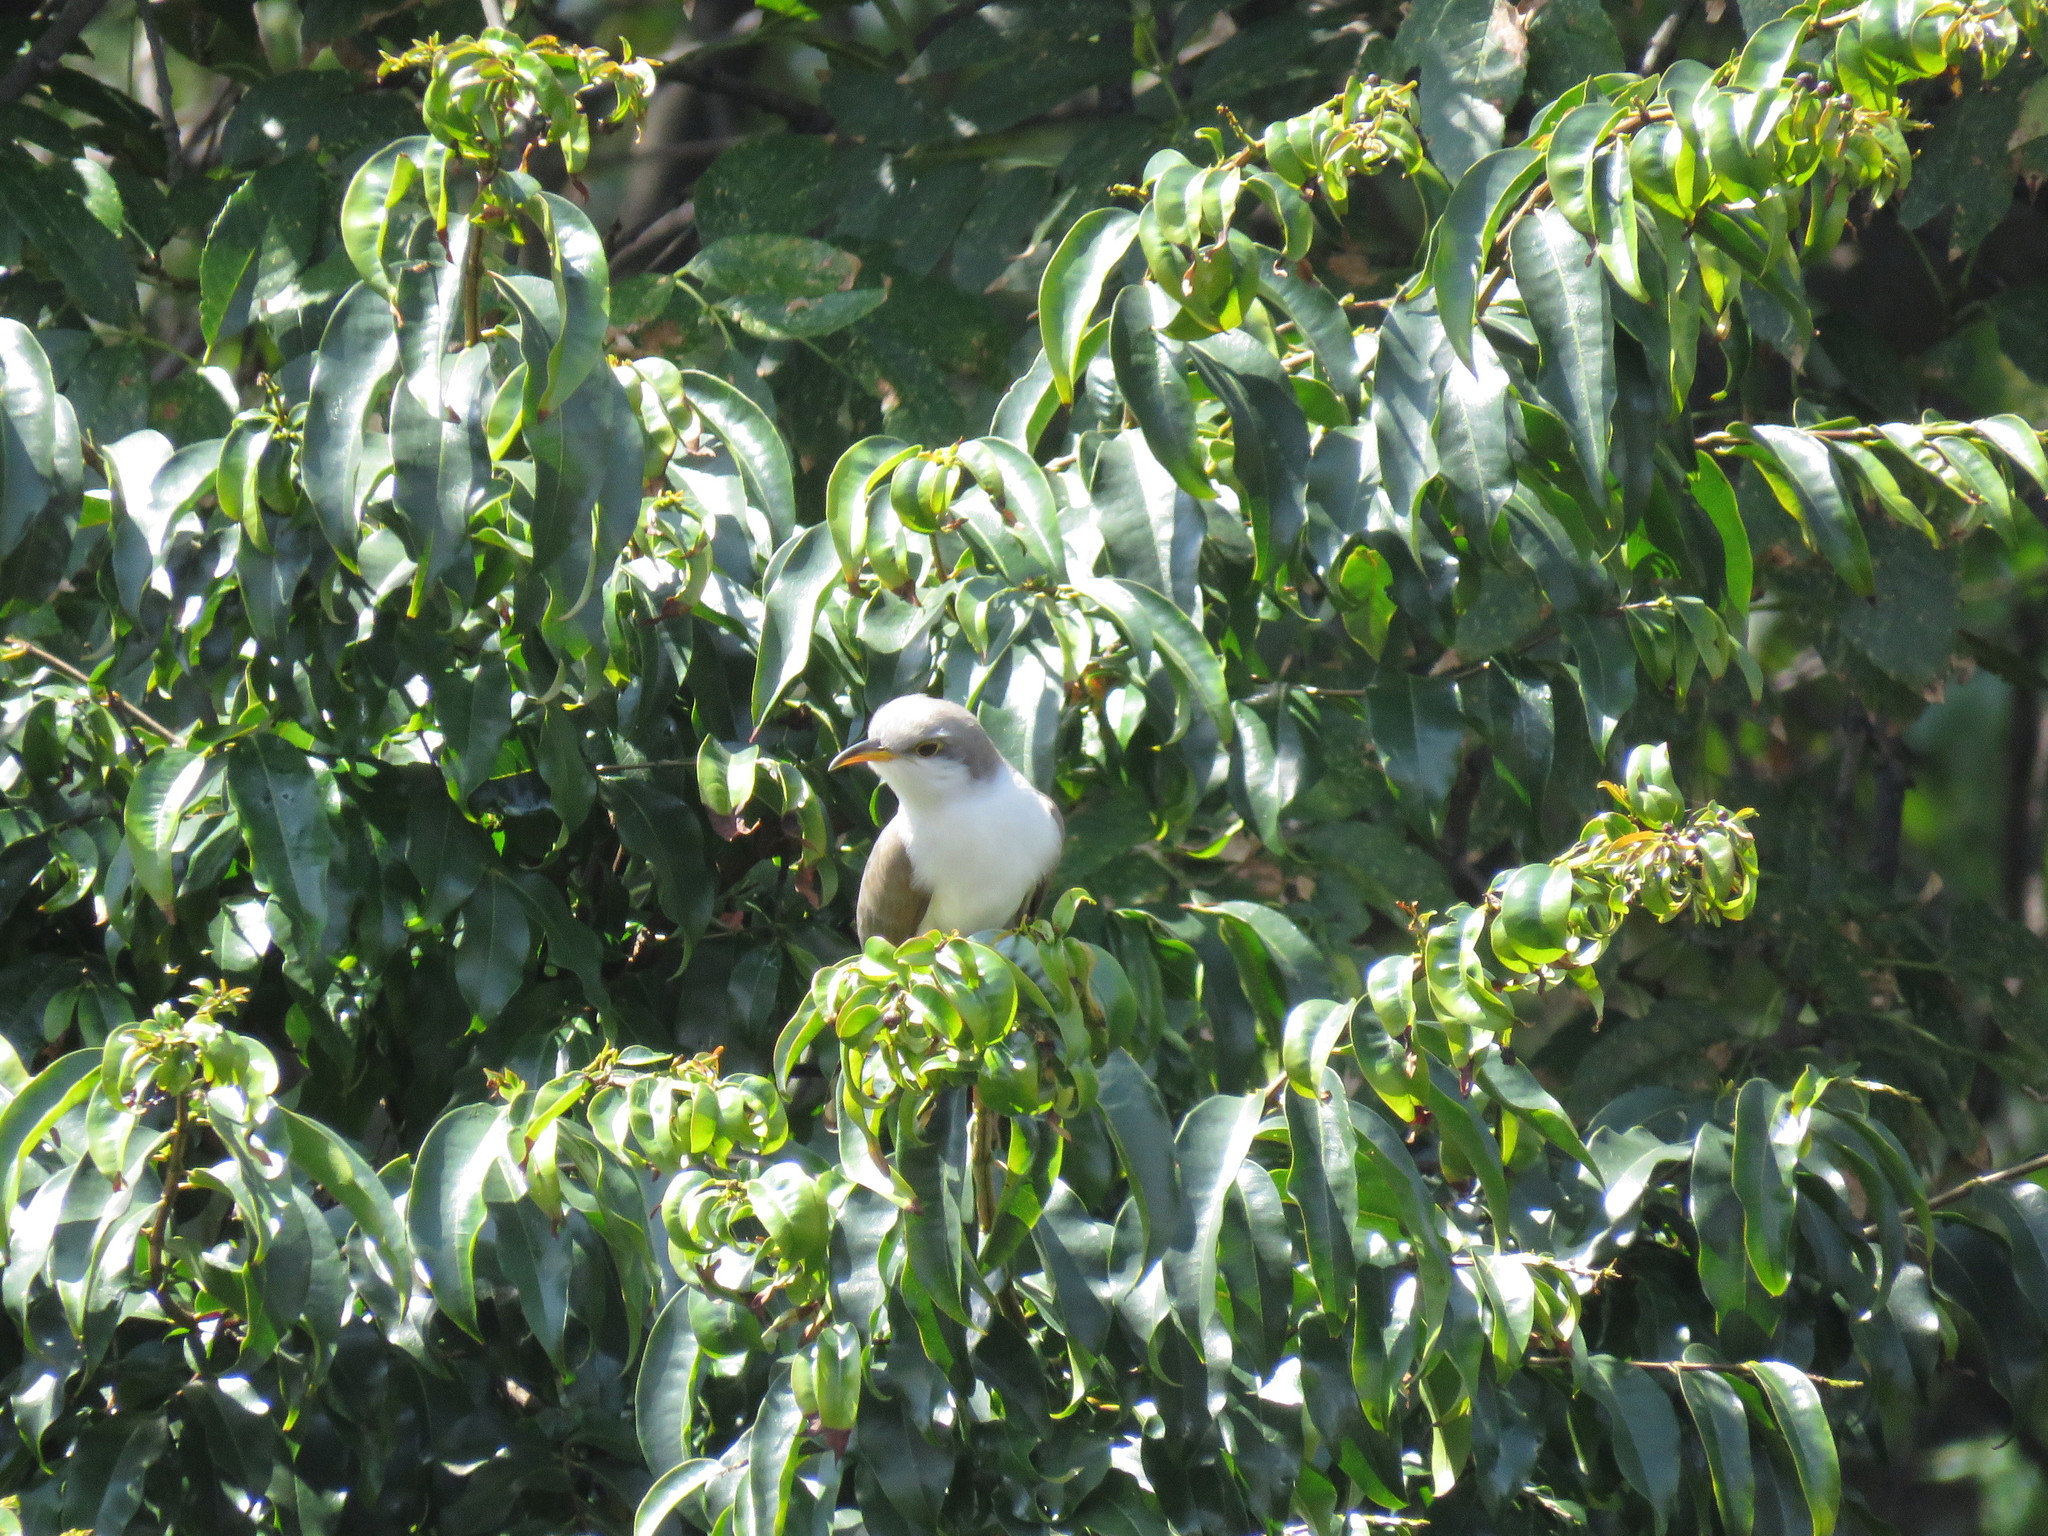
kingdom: Animalia
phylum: Chordata
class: Aves
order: Cuculiformes
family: Cuculidae
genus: Coccyzus
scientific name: Coccyzus americanus
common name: Yellow-billed cuckoo
